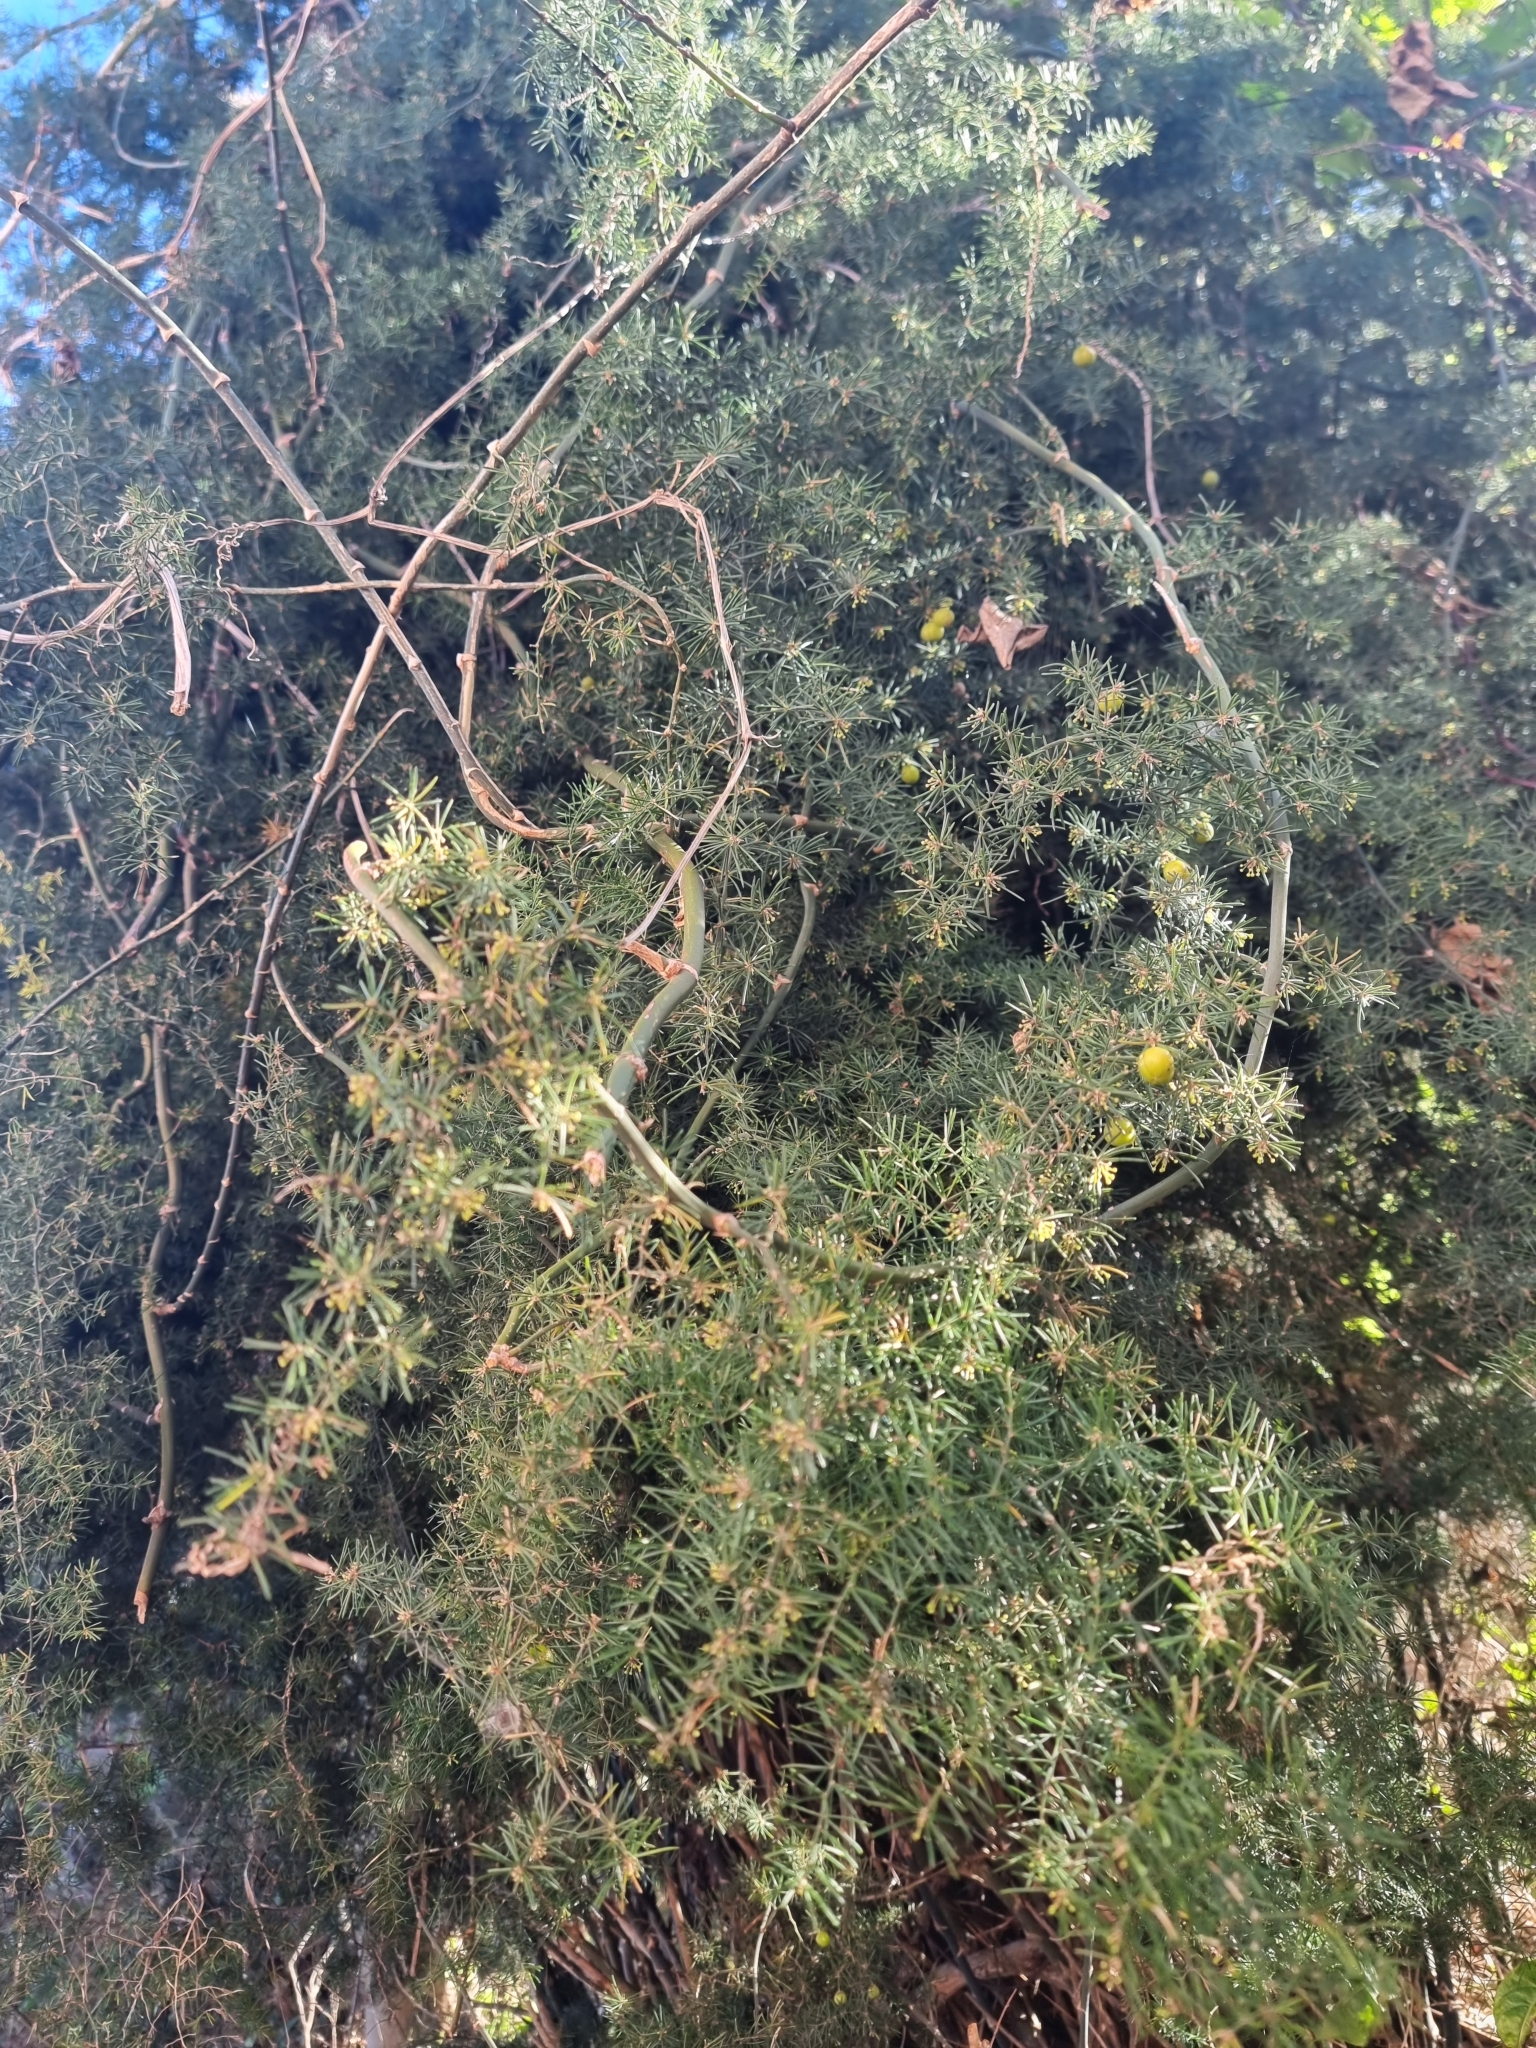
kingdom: Plantae
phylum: Tracheophyta
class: Liliopsida
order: Asparagales
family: Asparagaceae
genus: Asparagus
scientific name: Asparagus umbellatus
